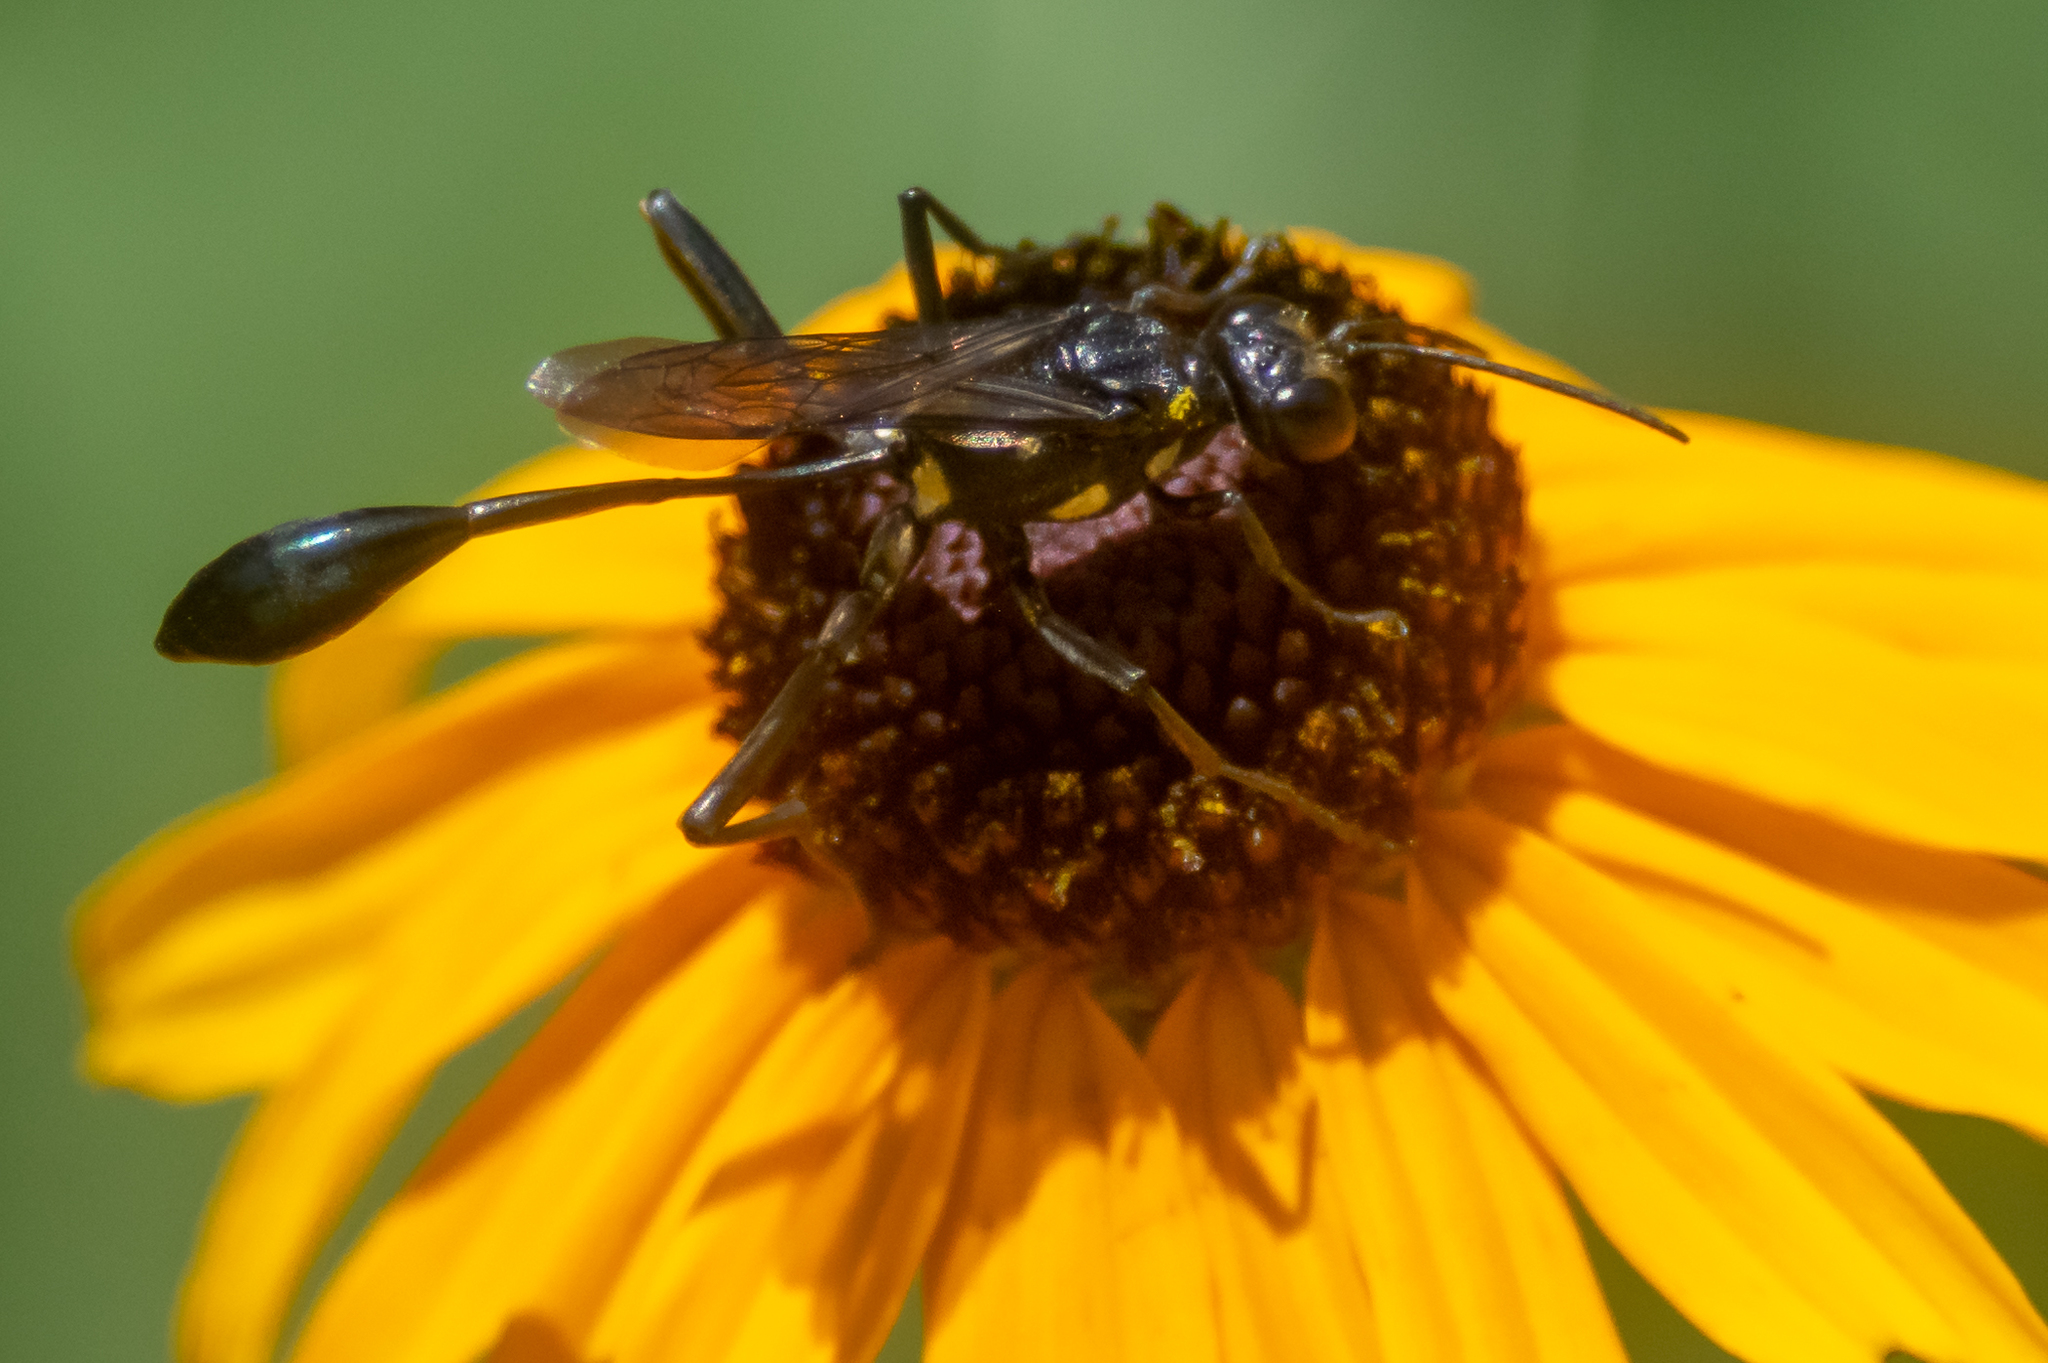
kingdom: Animalia
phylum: Arthropoda
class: Insecta
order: Hymenoptera
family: Sphecidae
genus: Eremnophila
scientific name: Eremnophila aureonotata
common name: Gold-marked thread-waisted wasp
